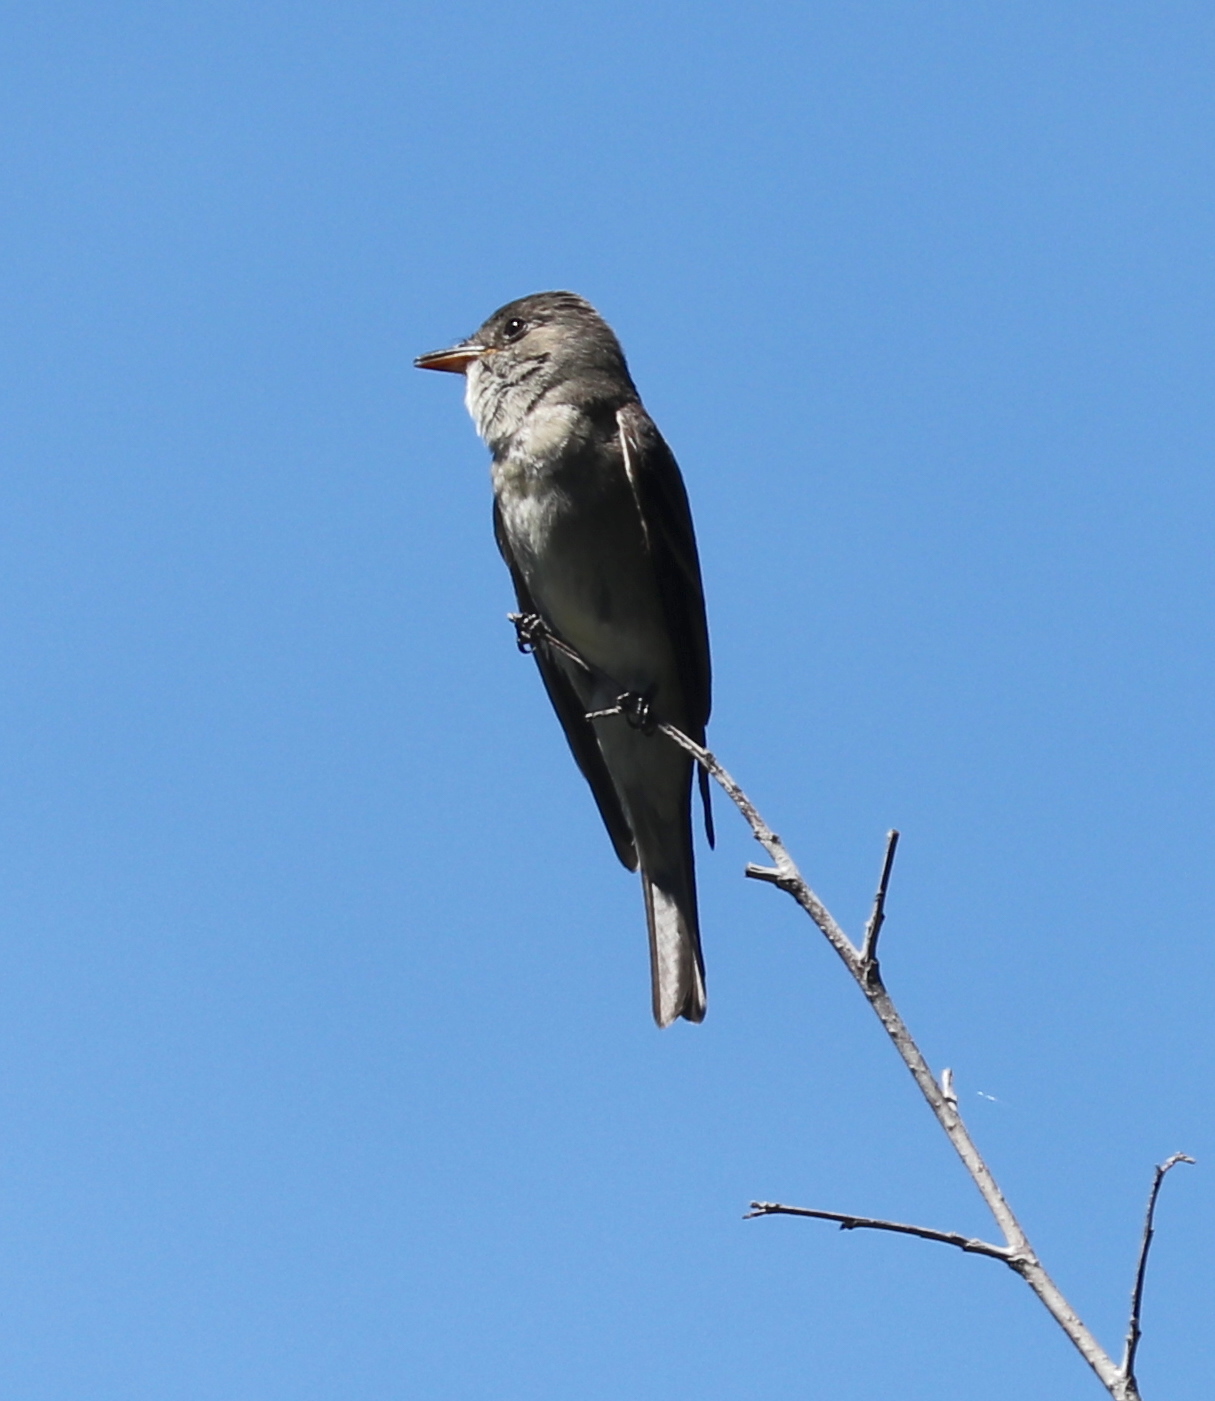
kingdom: Animalia
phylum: Chordata
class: Aves
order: Passeriformes
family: Tyrannidae
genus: Contopus
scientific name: Contopus sordidulus
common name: Western wood-pewee
